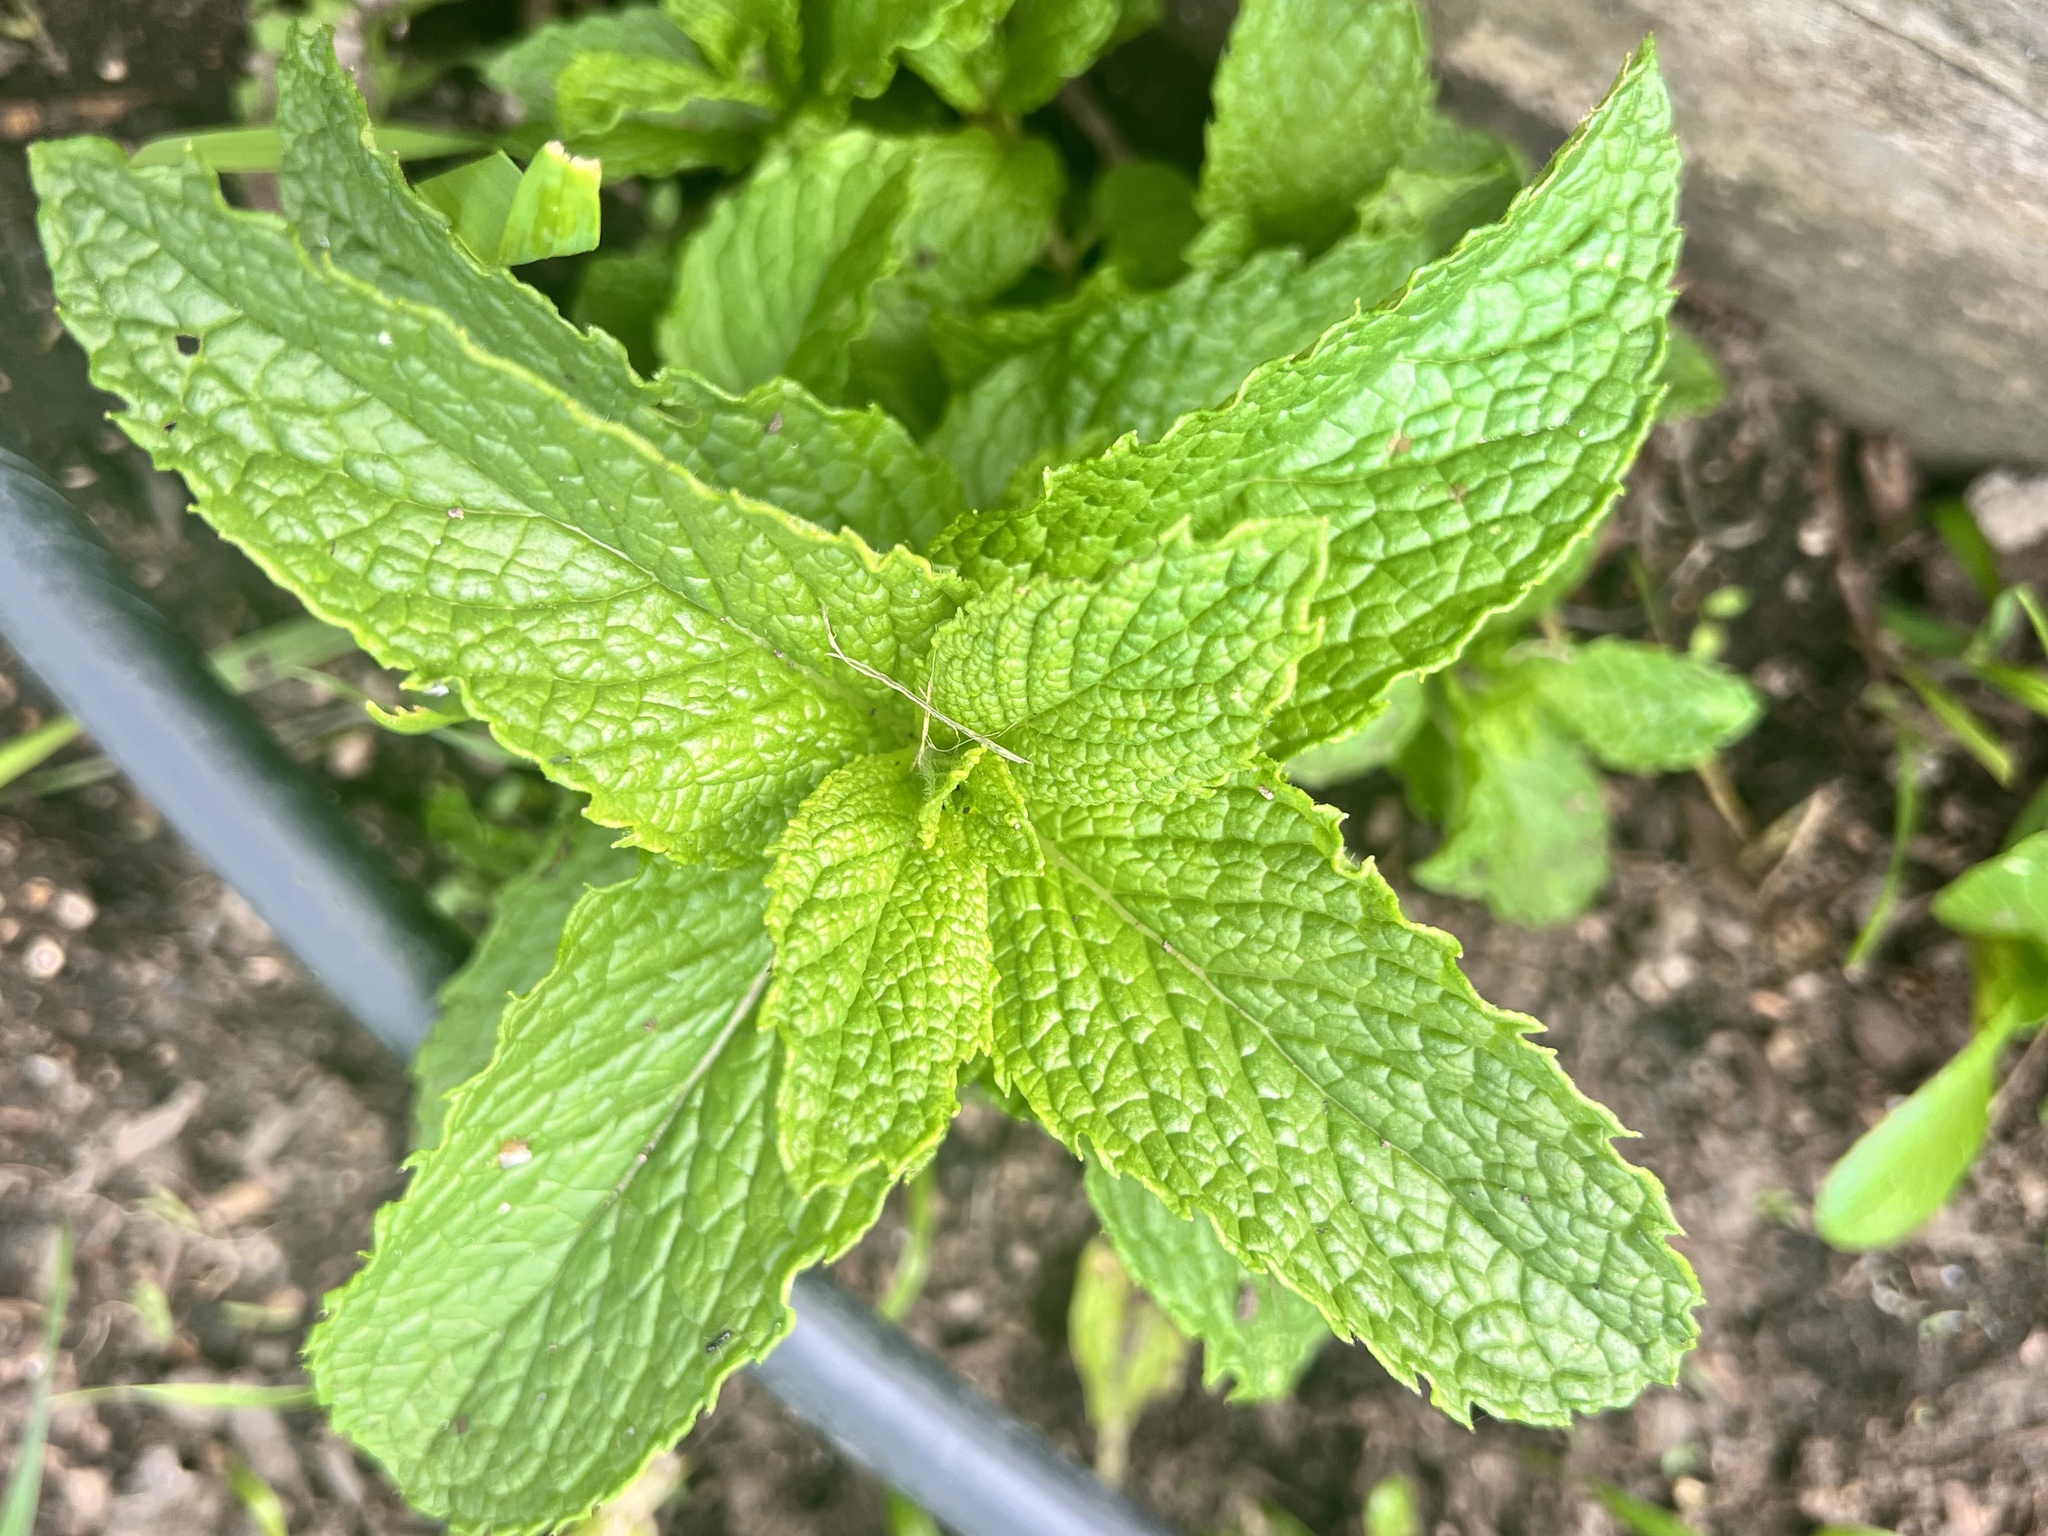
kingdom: Plantae
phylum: Tracheophyta
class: Magnoliopsida
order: Lamiales
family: Lamiaceae
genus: Mentha
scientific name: Mentha spicata
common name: Spearmint
